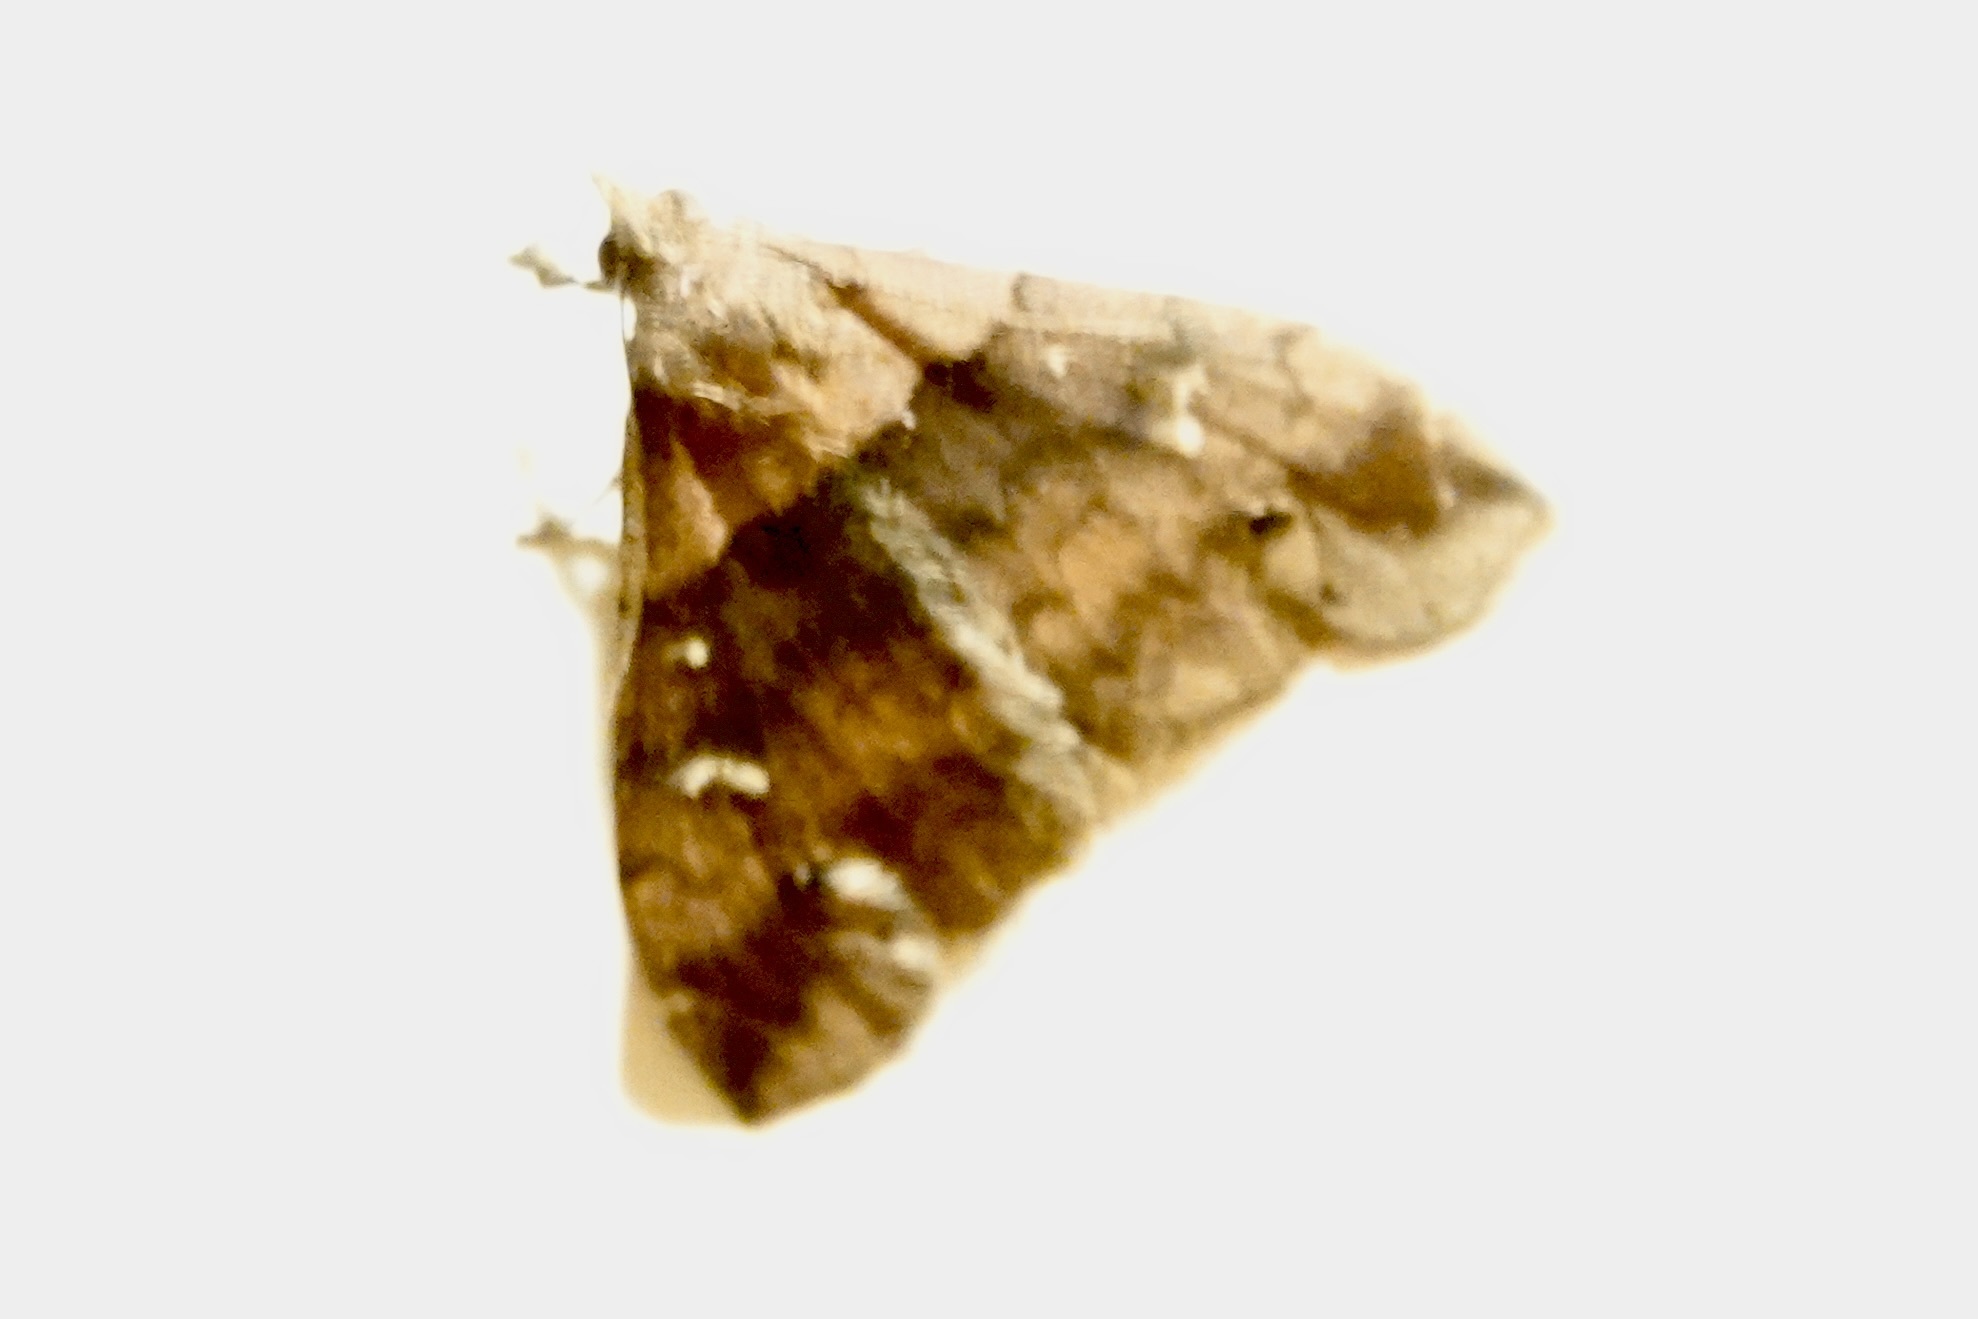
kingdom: Animalia
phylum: Arthropoda
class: Insecta
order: Lepidoptera
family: Erebidae
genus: Lascoria
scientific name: Lascoria ambigualis
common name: Ambiguous moth
